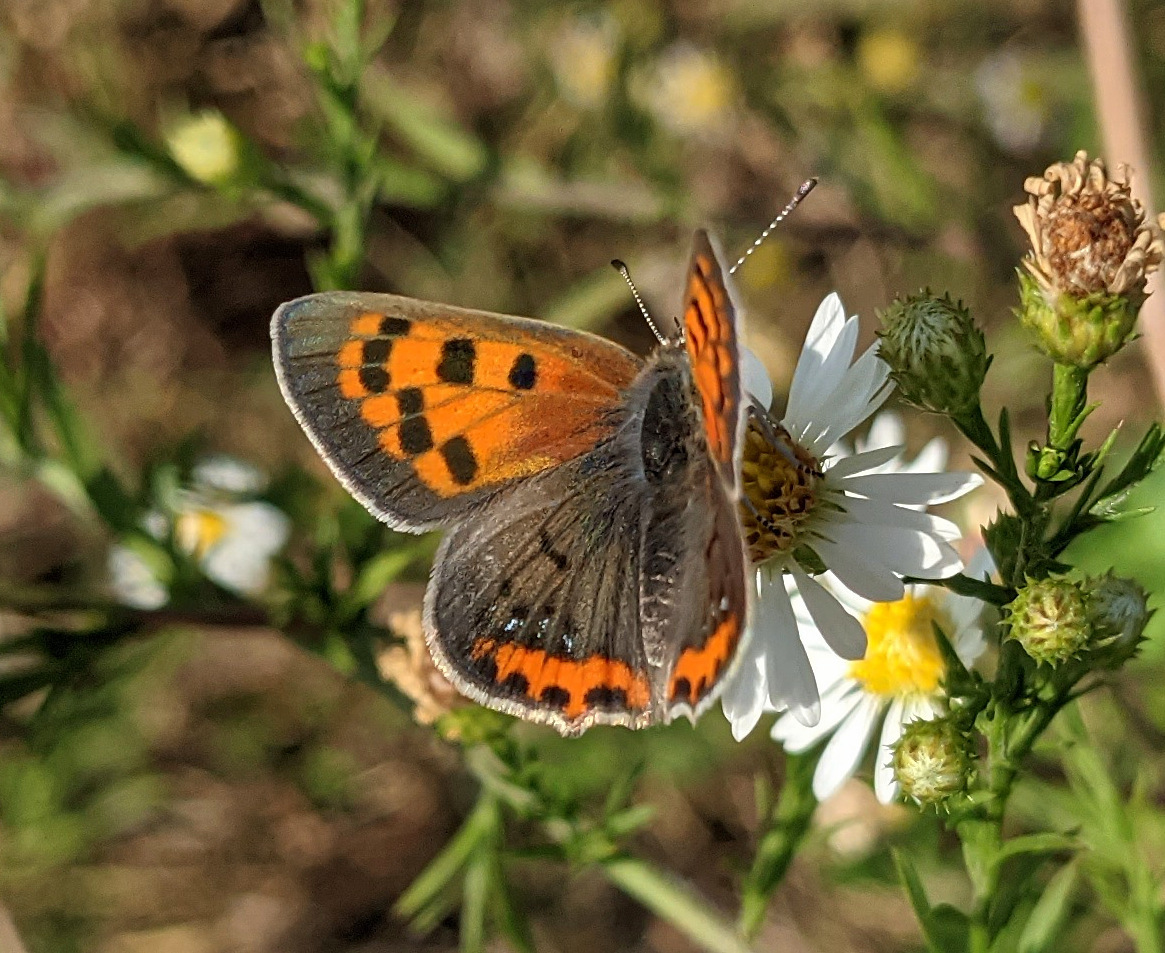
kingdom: Animalia
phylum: Arthropoda
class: Insecta
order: Lepidoptera
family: Lycaenidae
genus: Lycaena
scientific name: Lycaena hypophlaeas
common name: American copper
